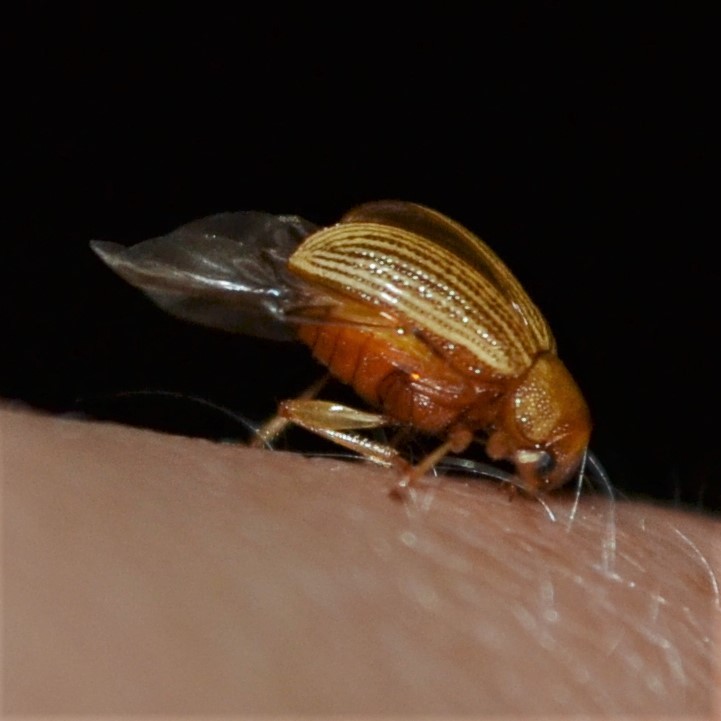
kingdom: Animalia
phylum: Arthropoda
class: Insecta
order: Coleoptera
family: Chrysomelidae
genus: Colaspis
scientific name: Colaspis brunnea
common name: Grape colaspis
